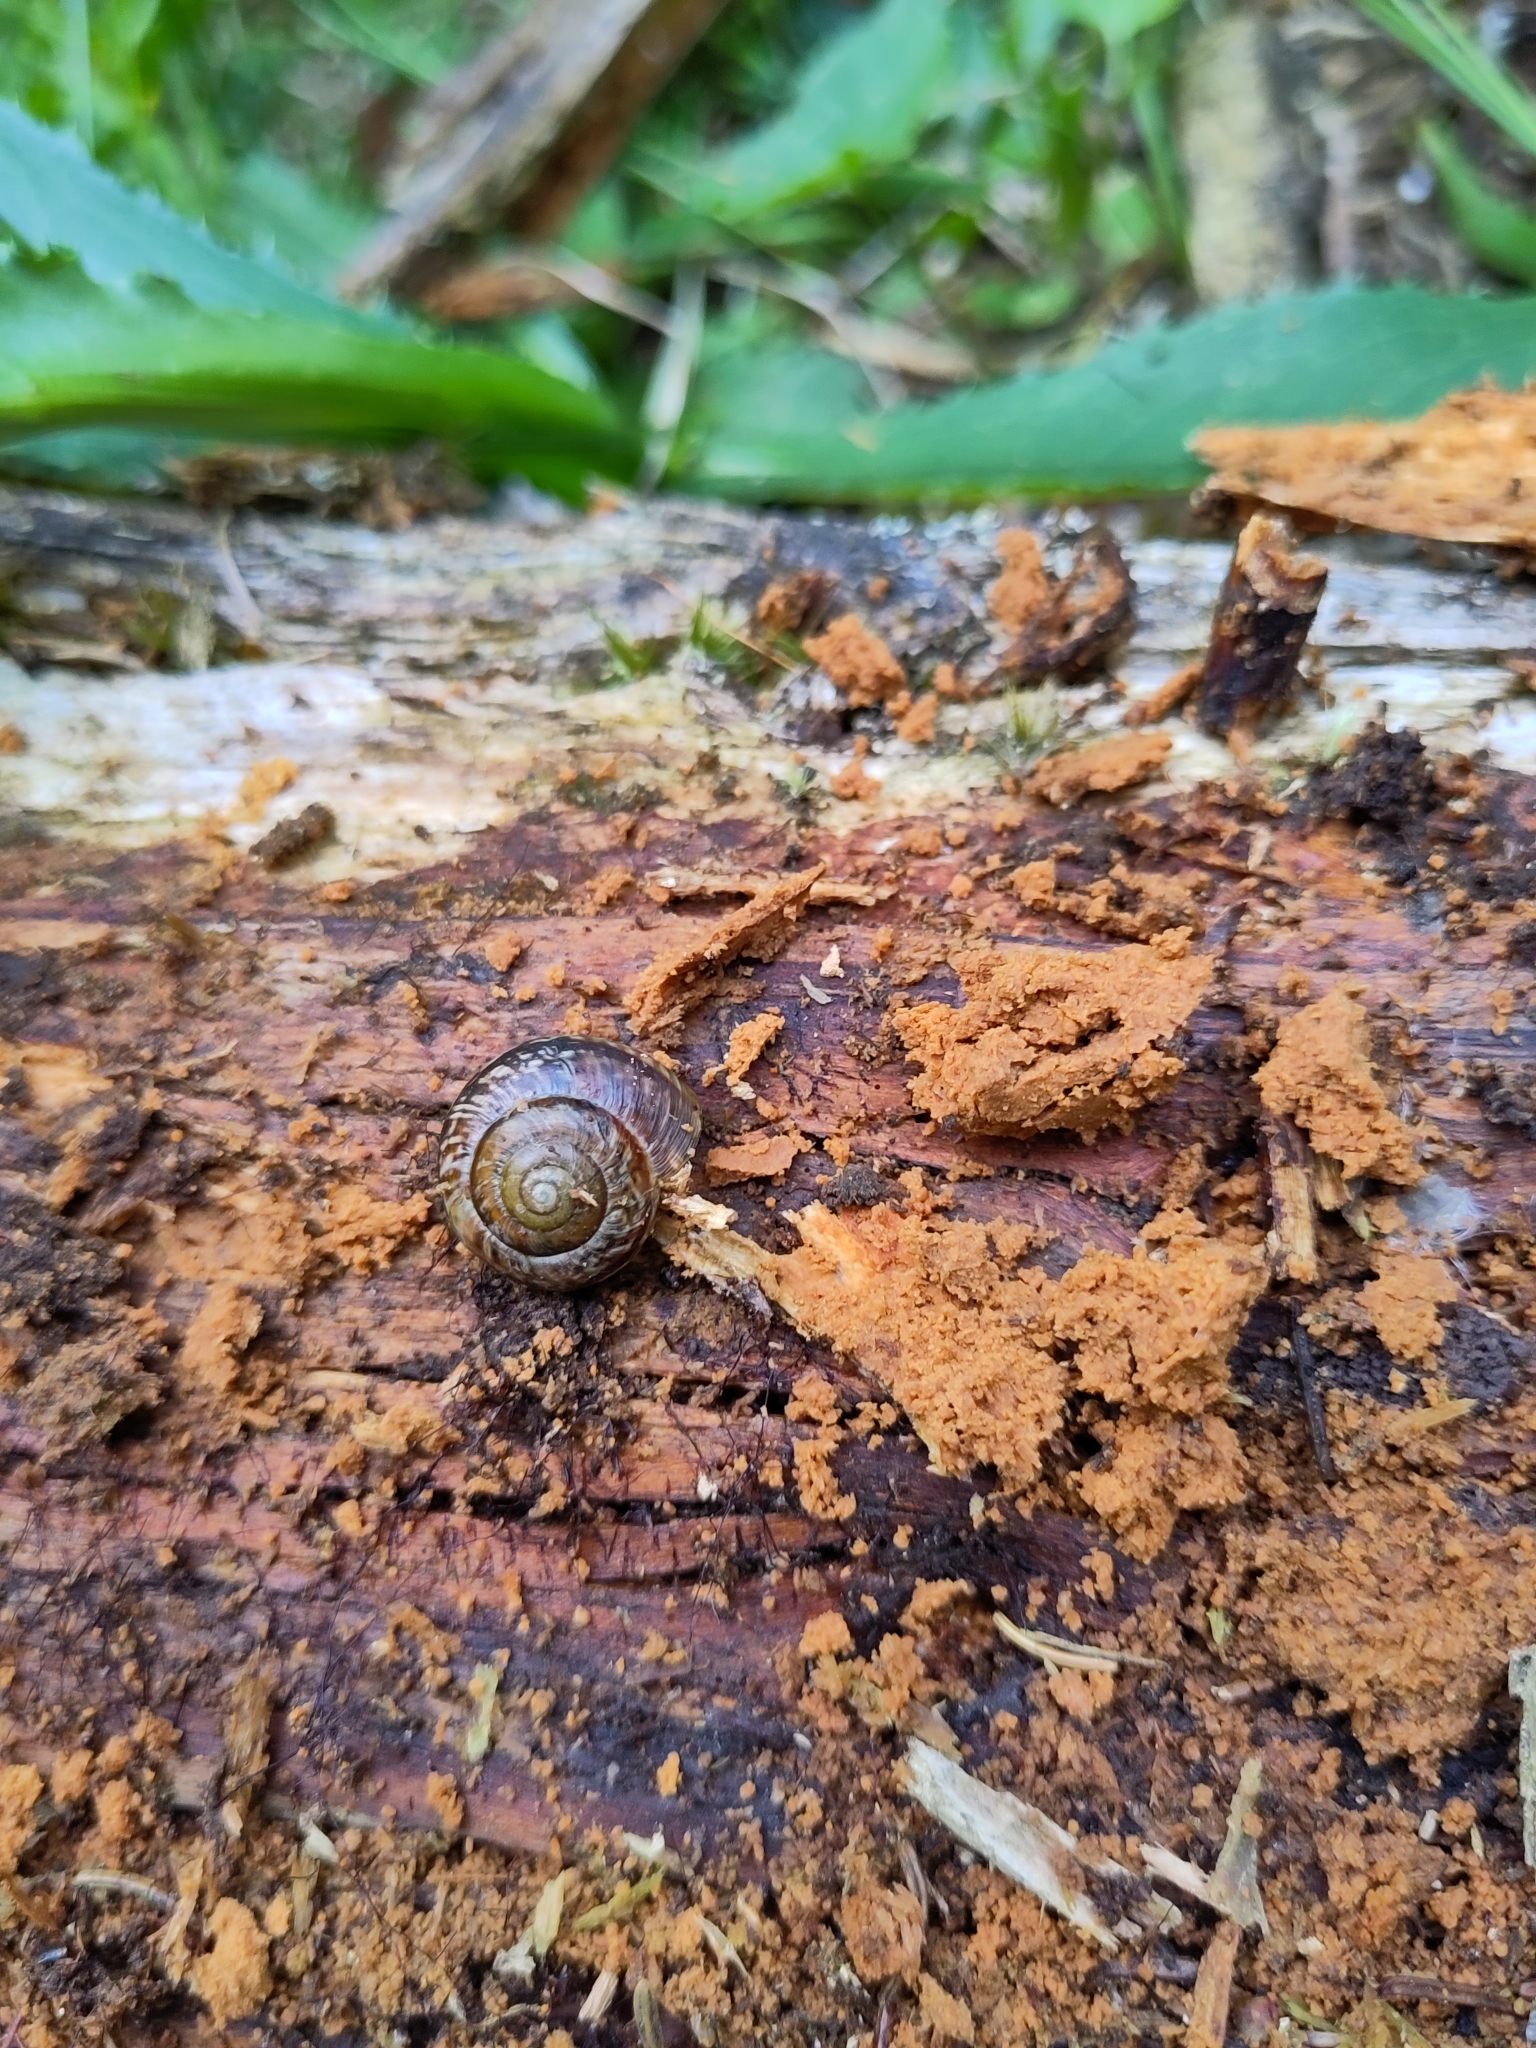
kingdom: Animalia
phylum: Mollusca
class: Gastropoda
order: Stylommatophora
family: Helicidae
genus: Arianta
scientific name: Arianta arbustorum
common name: Copse snail
